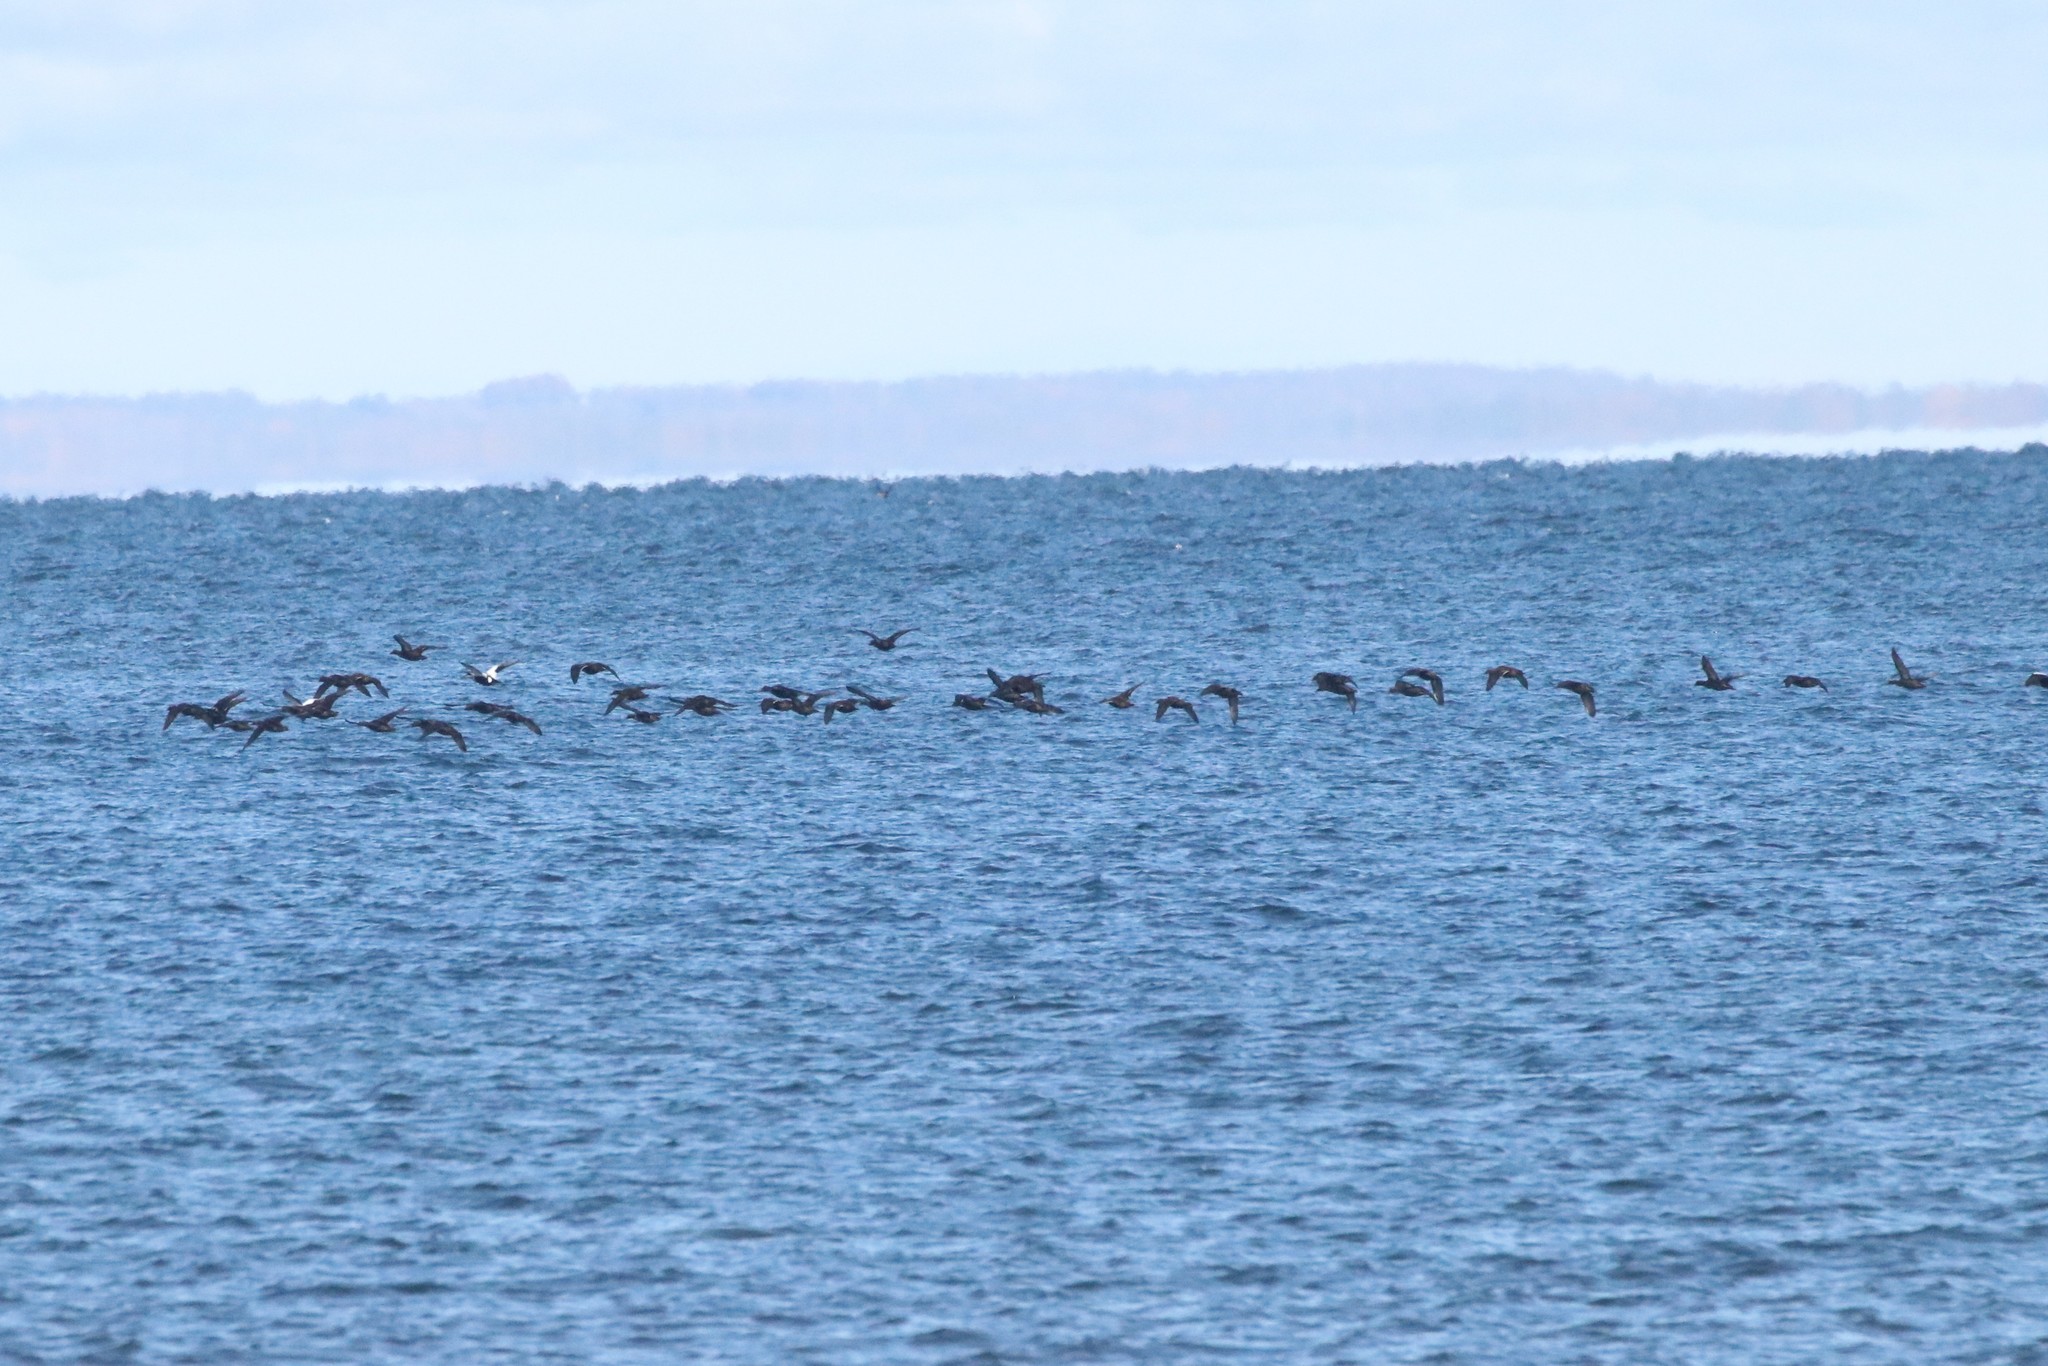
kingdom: Animalia
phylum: Chordata
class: Aves
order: Anseriformes
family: Anatidae
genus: Somateria
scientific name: Somateria mollissima
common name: Common eider
